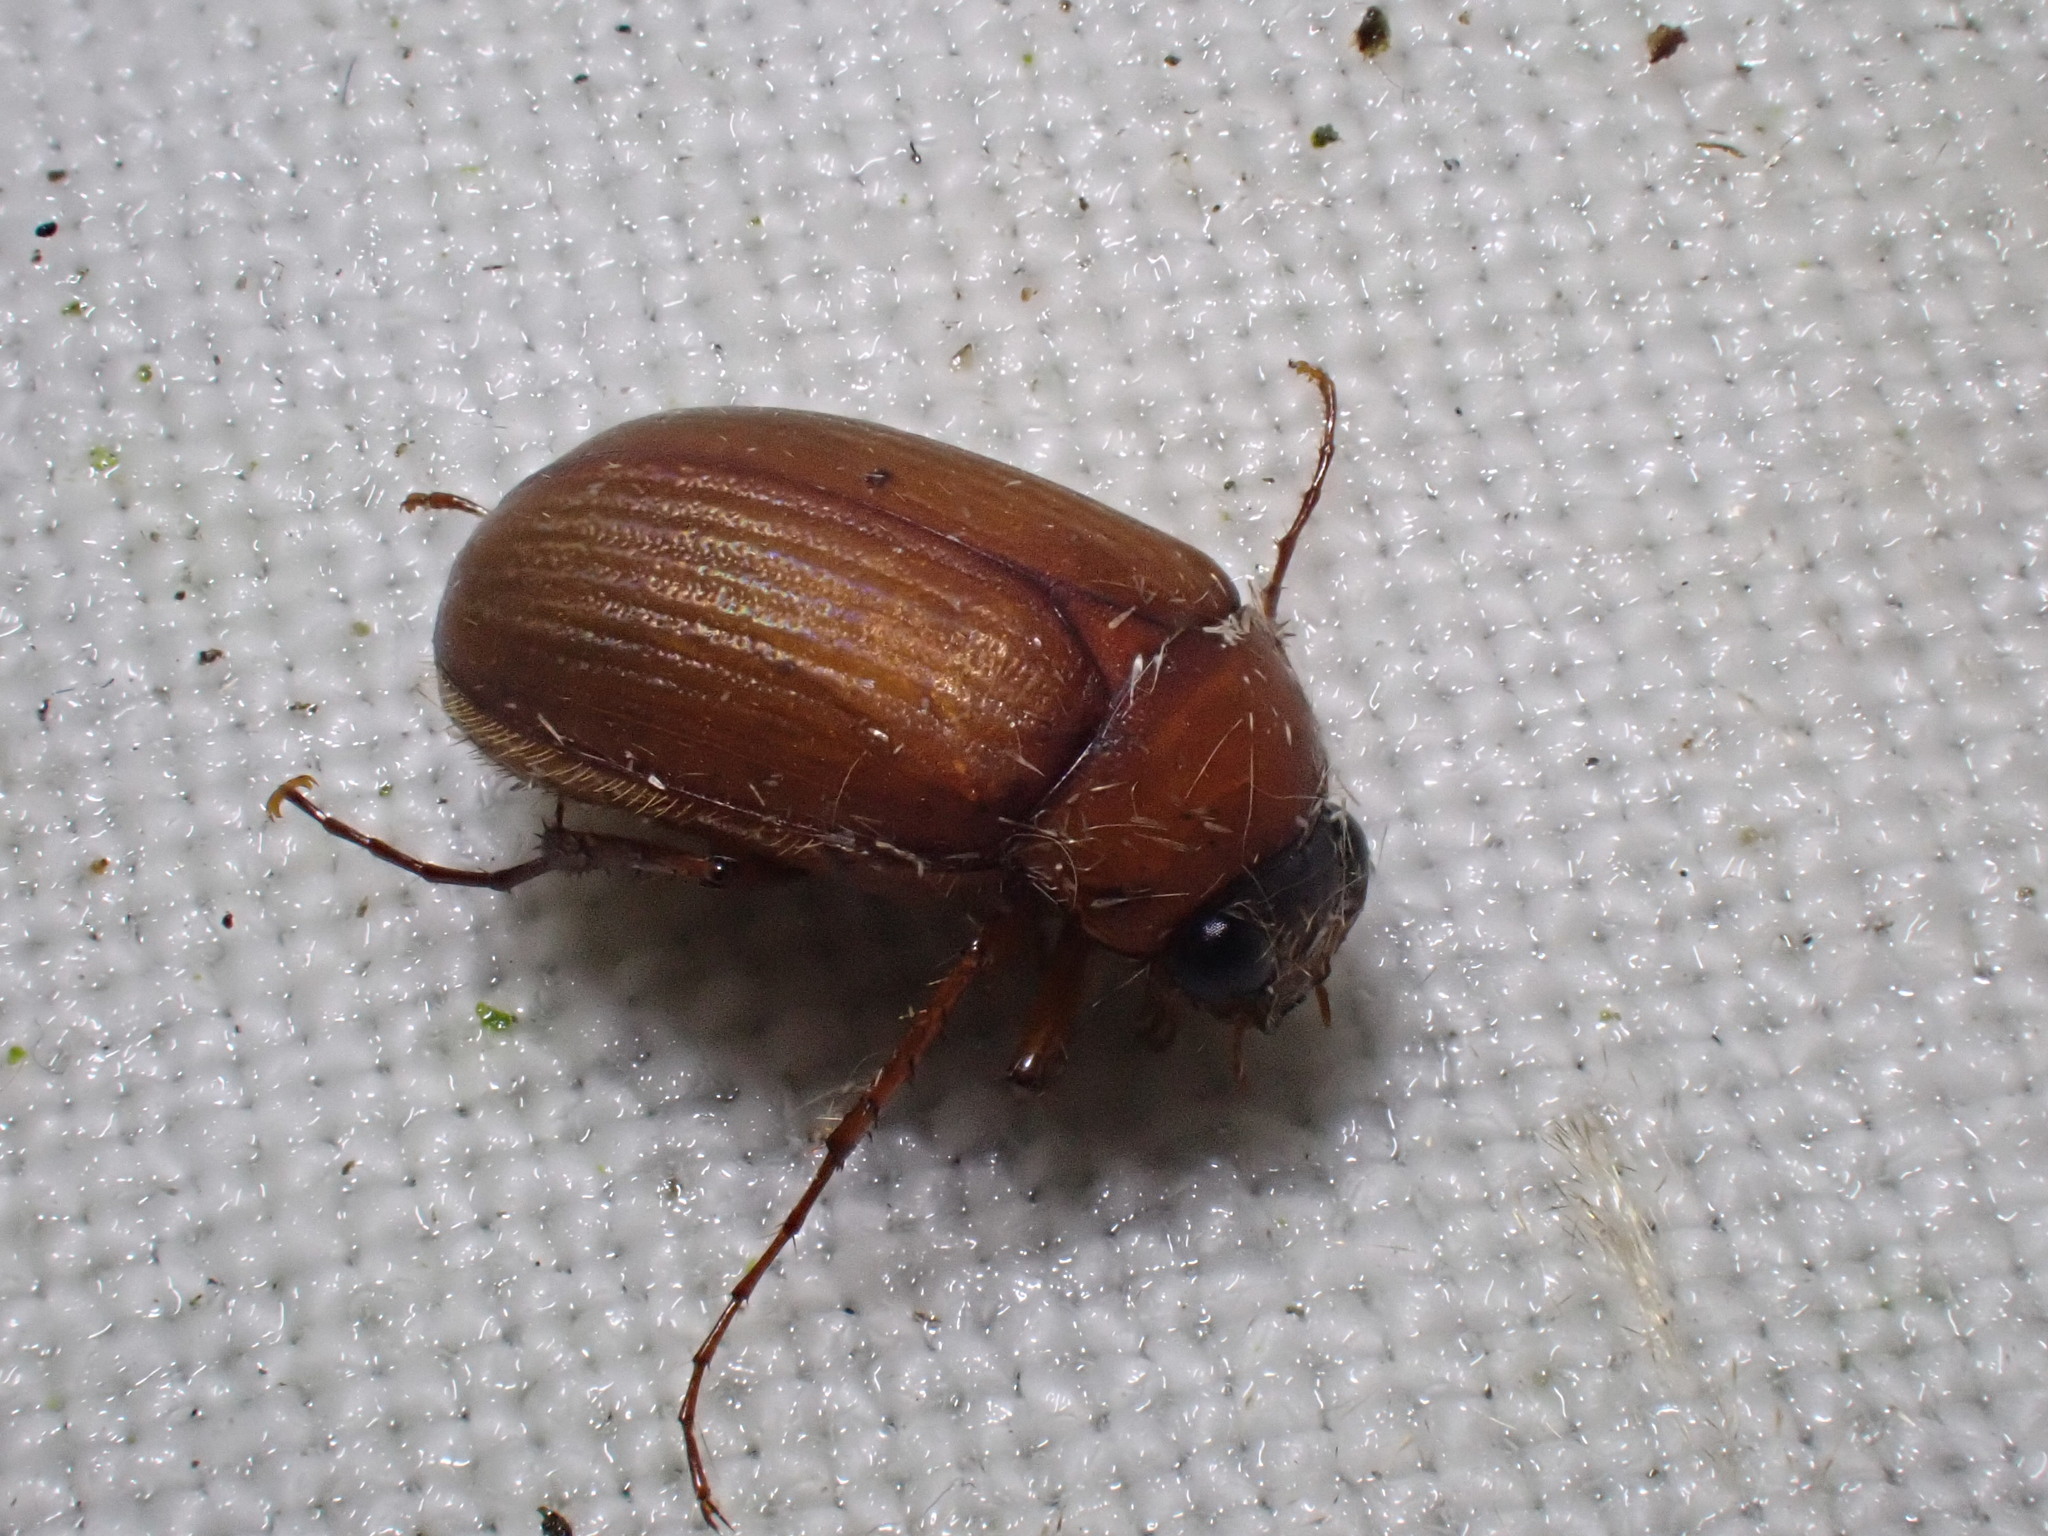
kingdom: Animalia
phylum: Arthropoda
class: Insecta
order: Coleoptera
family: Scarabaeidae
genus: Serica
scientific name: Serica brunnea
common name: Brown chafer
